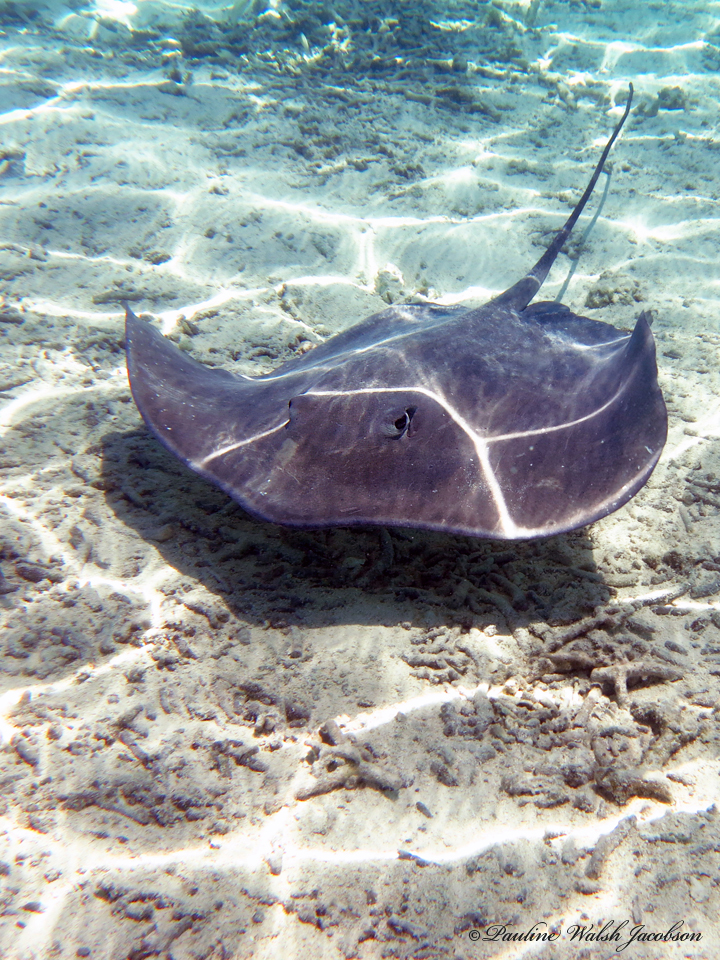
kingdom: Animalia
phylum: Chordata
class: Elasmobranchii
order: Myliobatiformes
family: Dasyatidae
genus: Pateobatis
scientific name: Pateobatis fai
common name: Pink whipray
